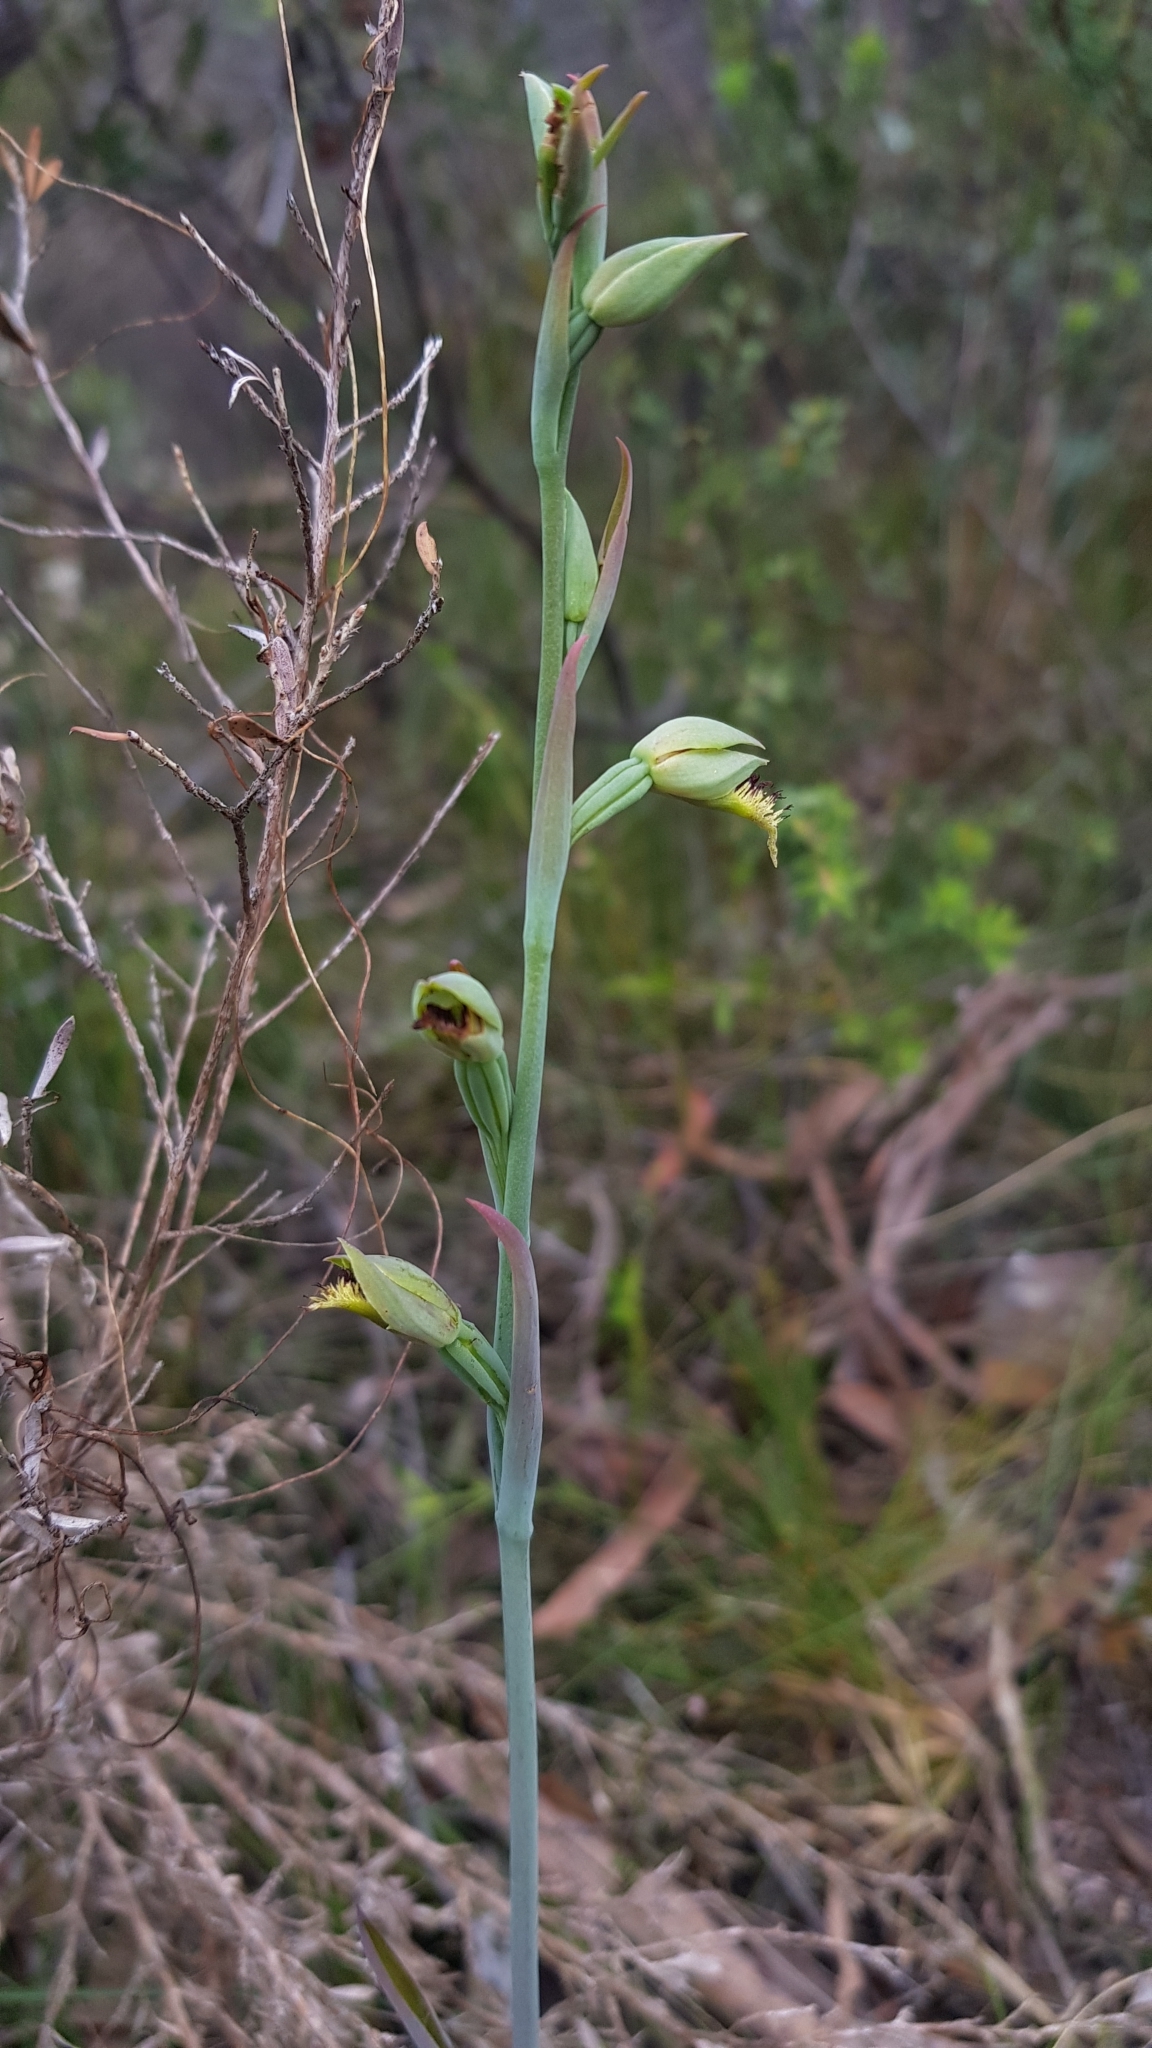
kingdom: Plantae
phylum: Tracheophyta
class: Liliopsida
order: Asparagales
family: Orchidaceae
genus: Calochilus
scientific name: Calochilus campestris
